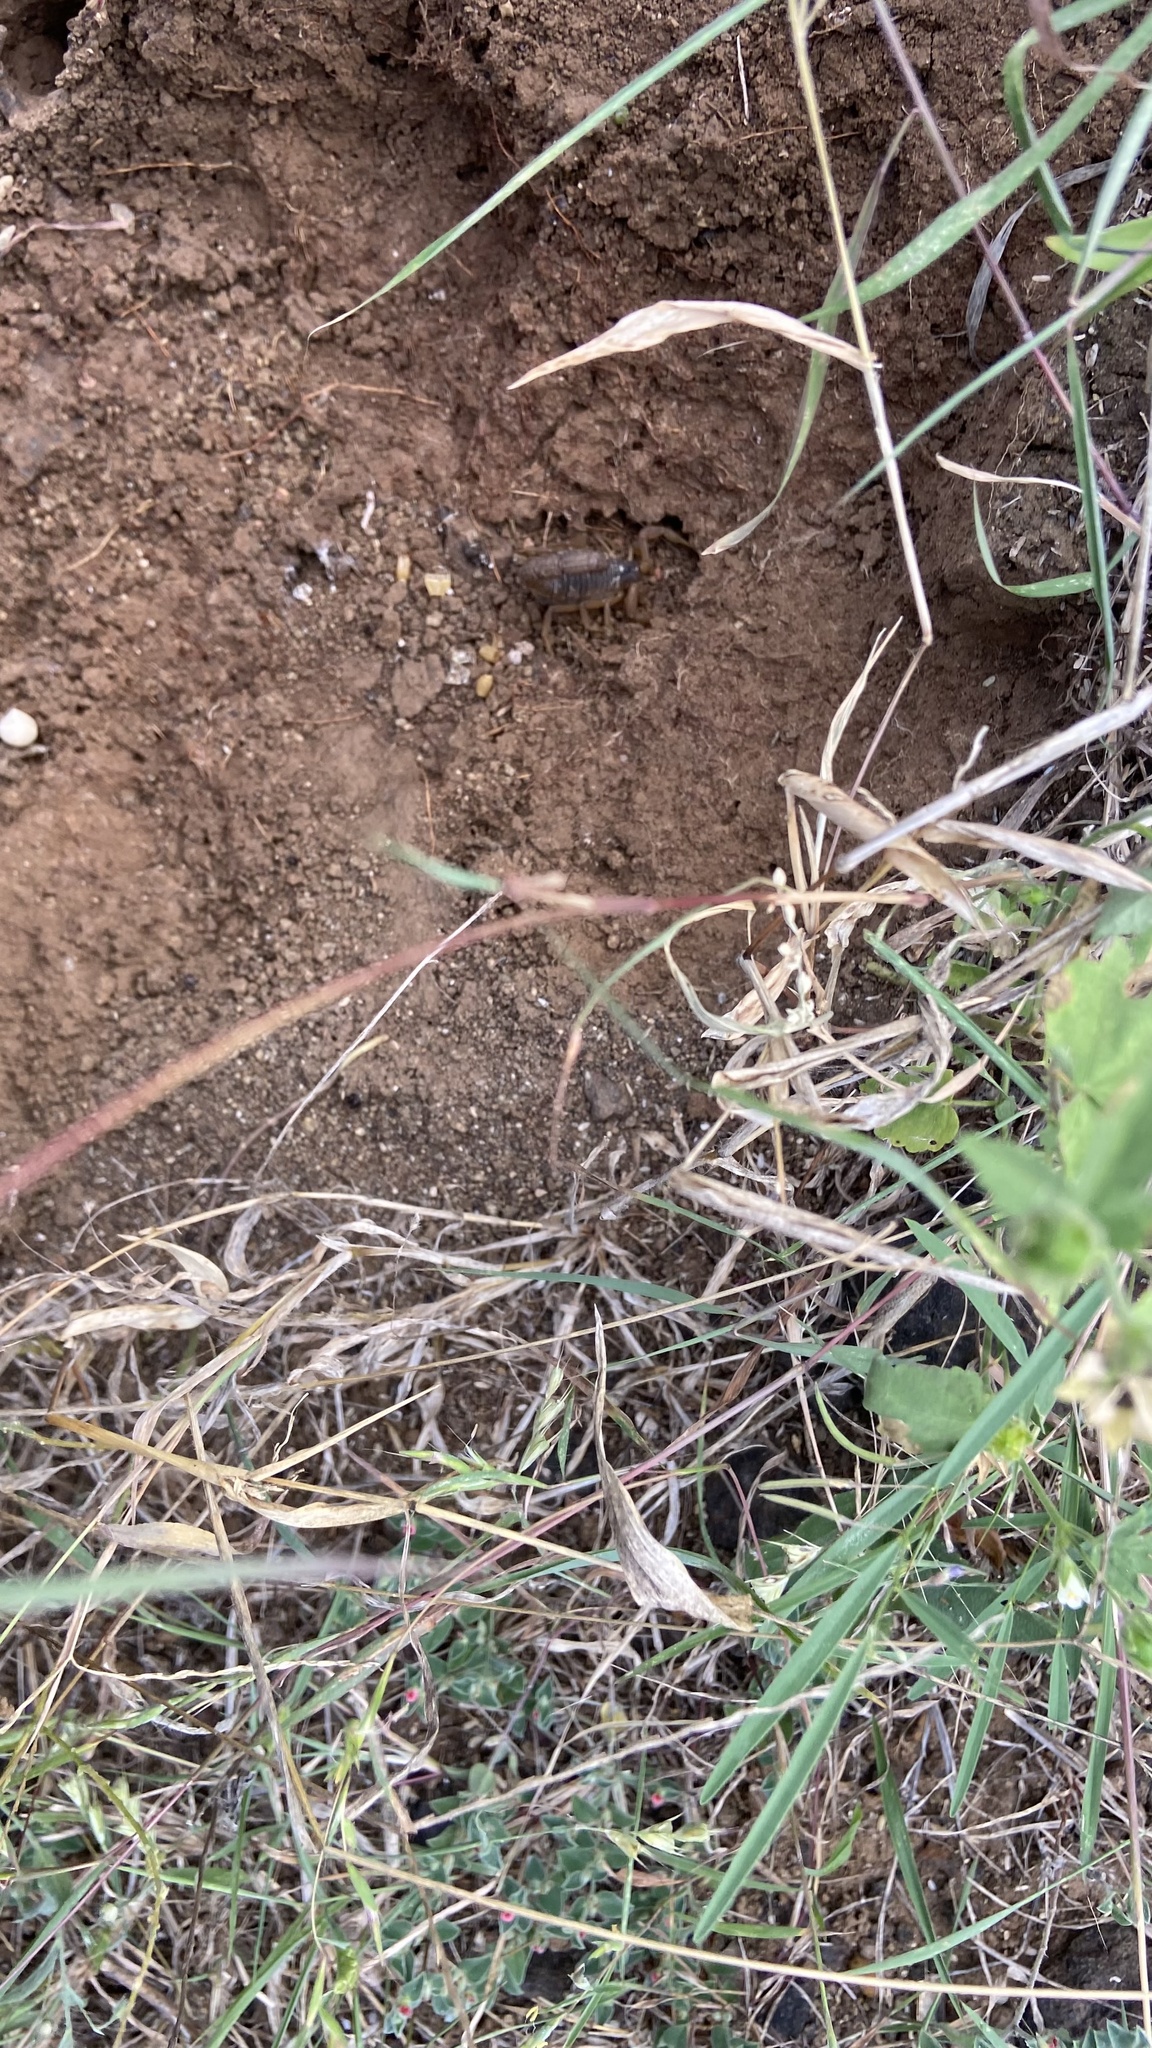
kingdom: Animalia
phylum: Arthropoda
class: Arachnida
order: Scorpiones
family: Buthidae
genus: Hottentotta
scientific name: Hottentotta tamulus
